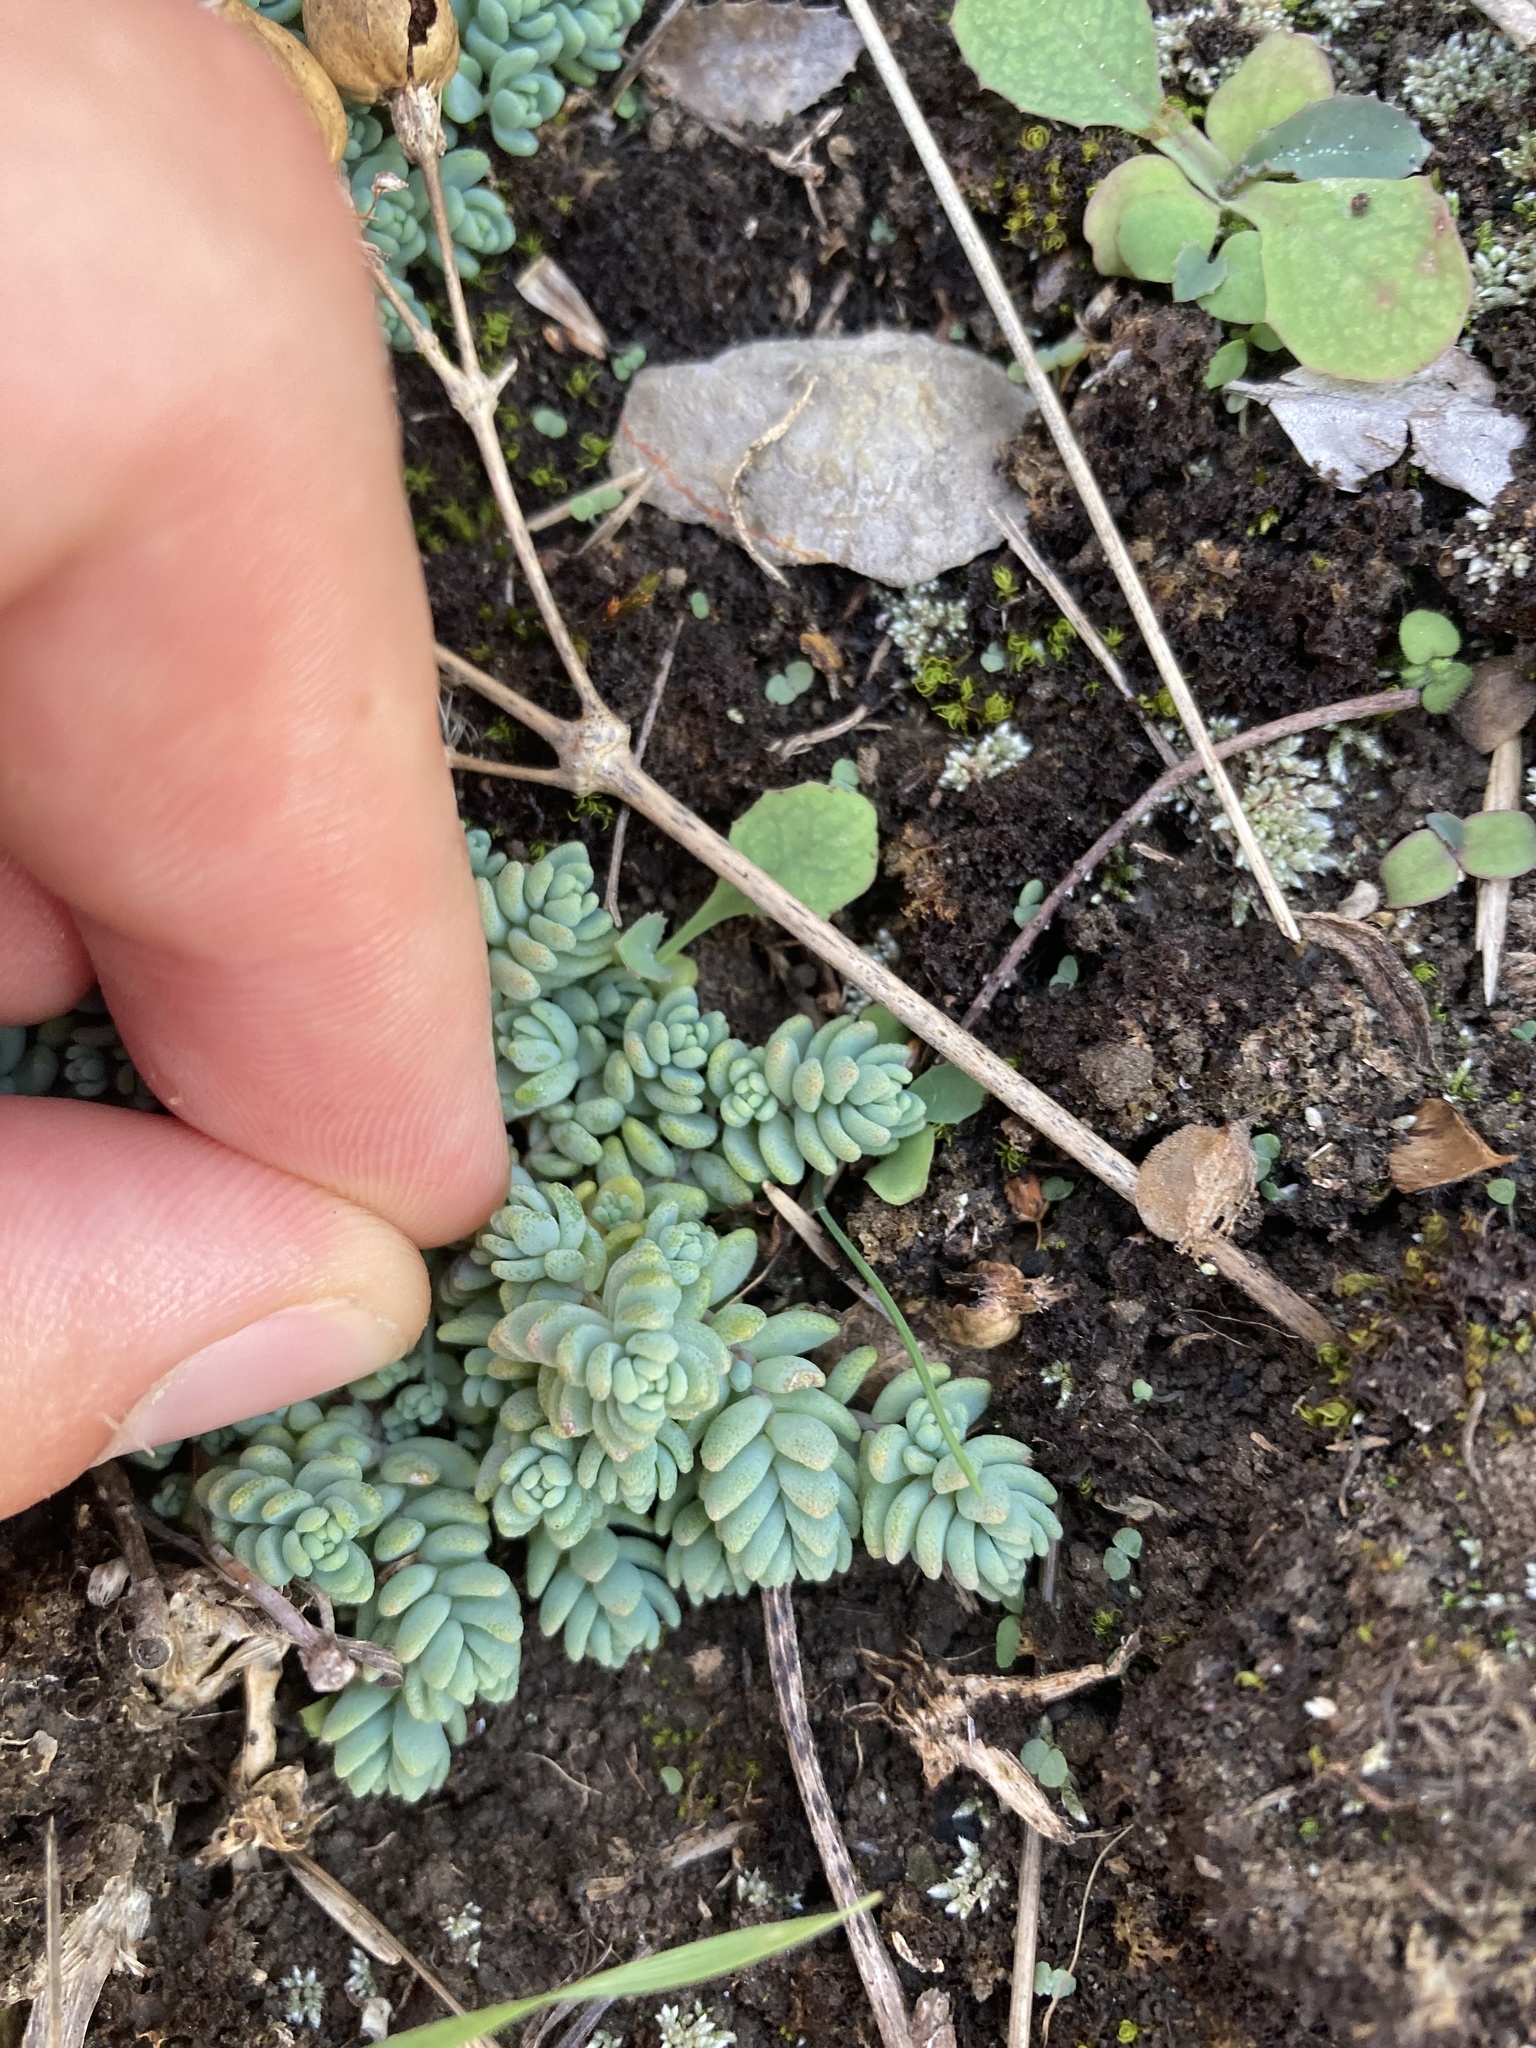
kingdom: Plantae
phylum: Tracheophyta
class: Magnoliopsida
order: Saxifragales
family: Crassulaceae
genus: Sedum
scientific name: Sedum dasyphyllum
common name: Thick-leaf stonecrop
